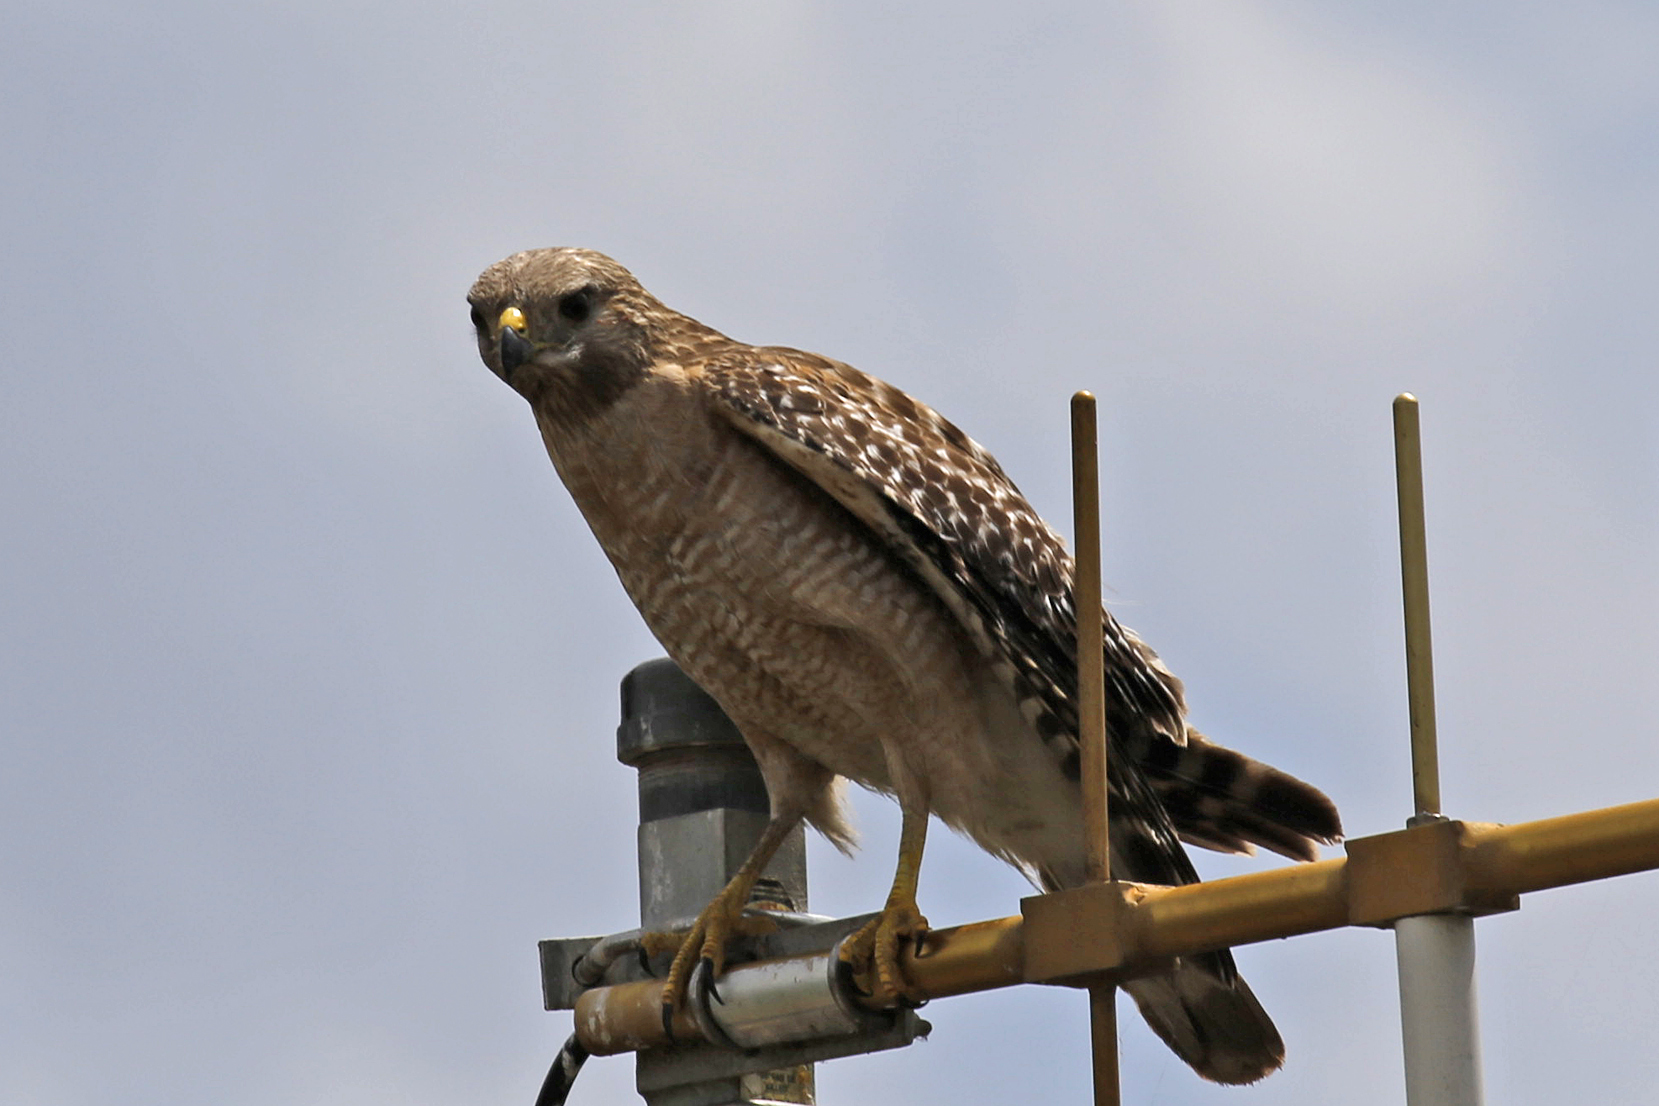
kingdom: Animalia
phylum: Chordata
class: Aves
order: Accipitriformes
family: Accipitridae
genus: Buteo
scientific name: Buteo lineatus
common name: Red-shouldered hawk
